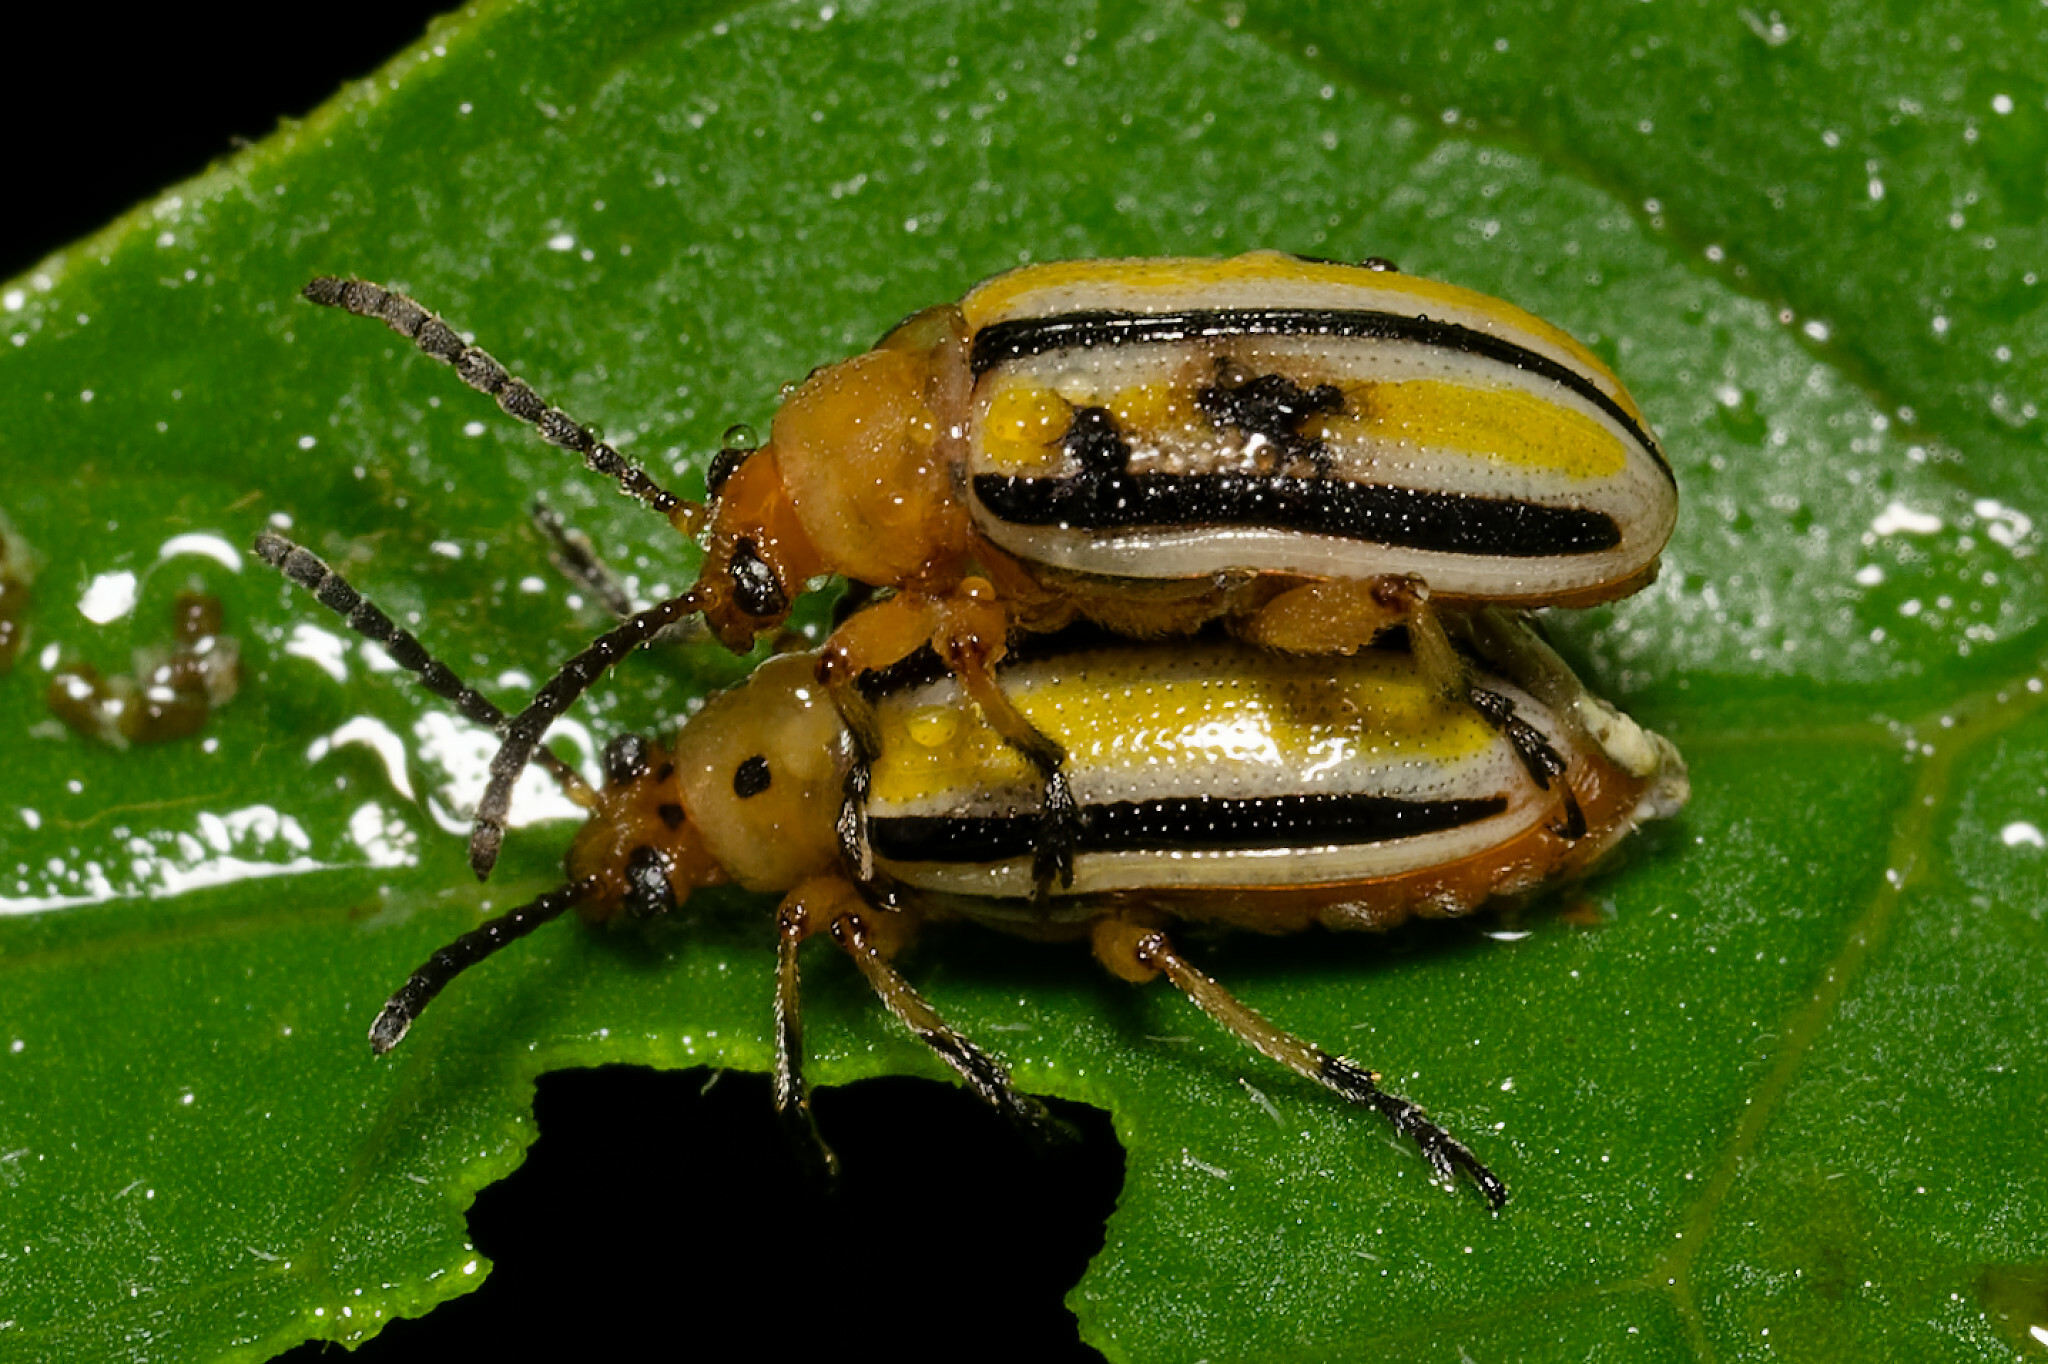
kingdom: Animalia
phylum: Arthropoda
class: Insecta
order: Coleoptera
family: Chrysomelidae
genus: Lema
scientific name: Lema daturaphila
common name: Leaf beetle
